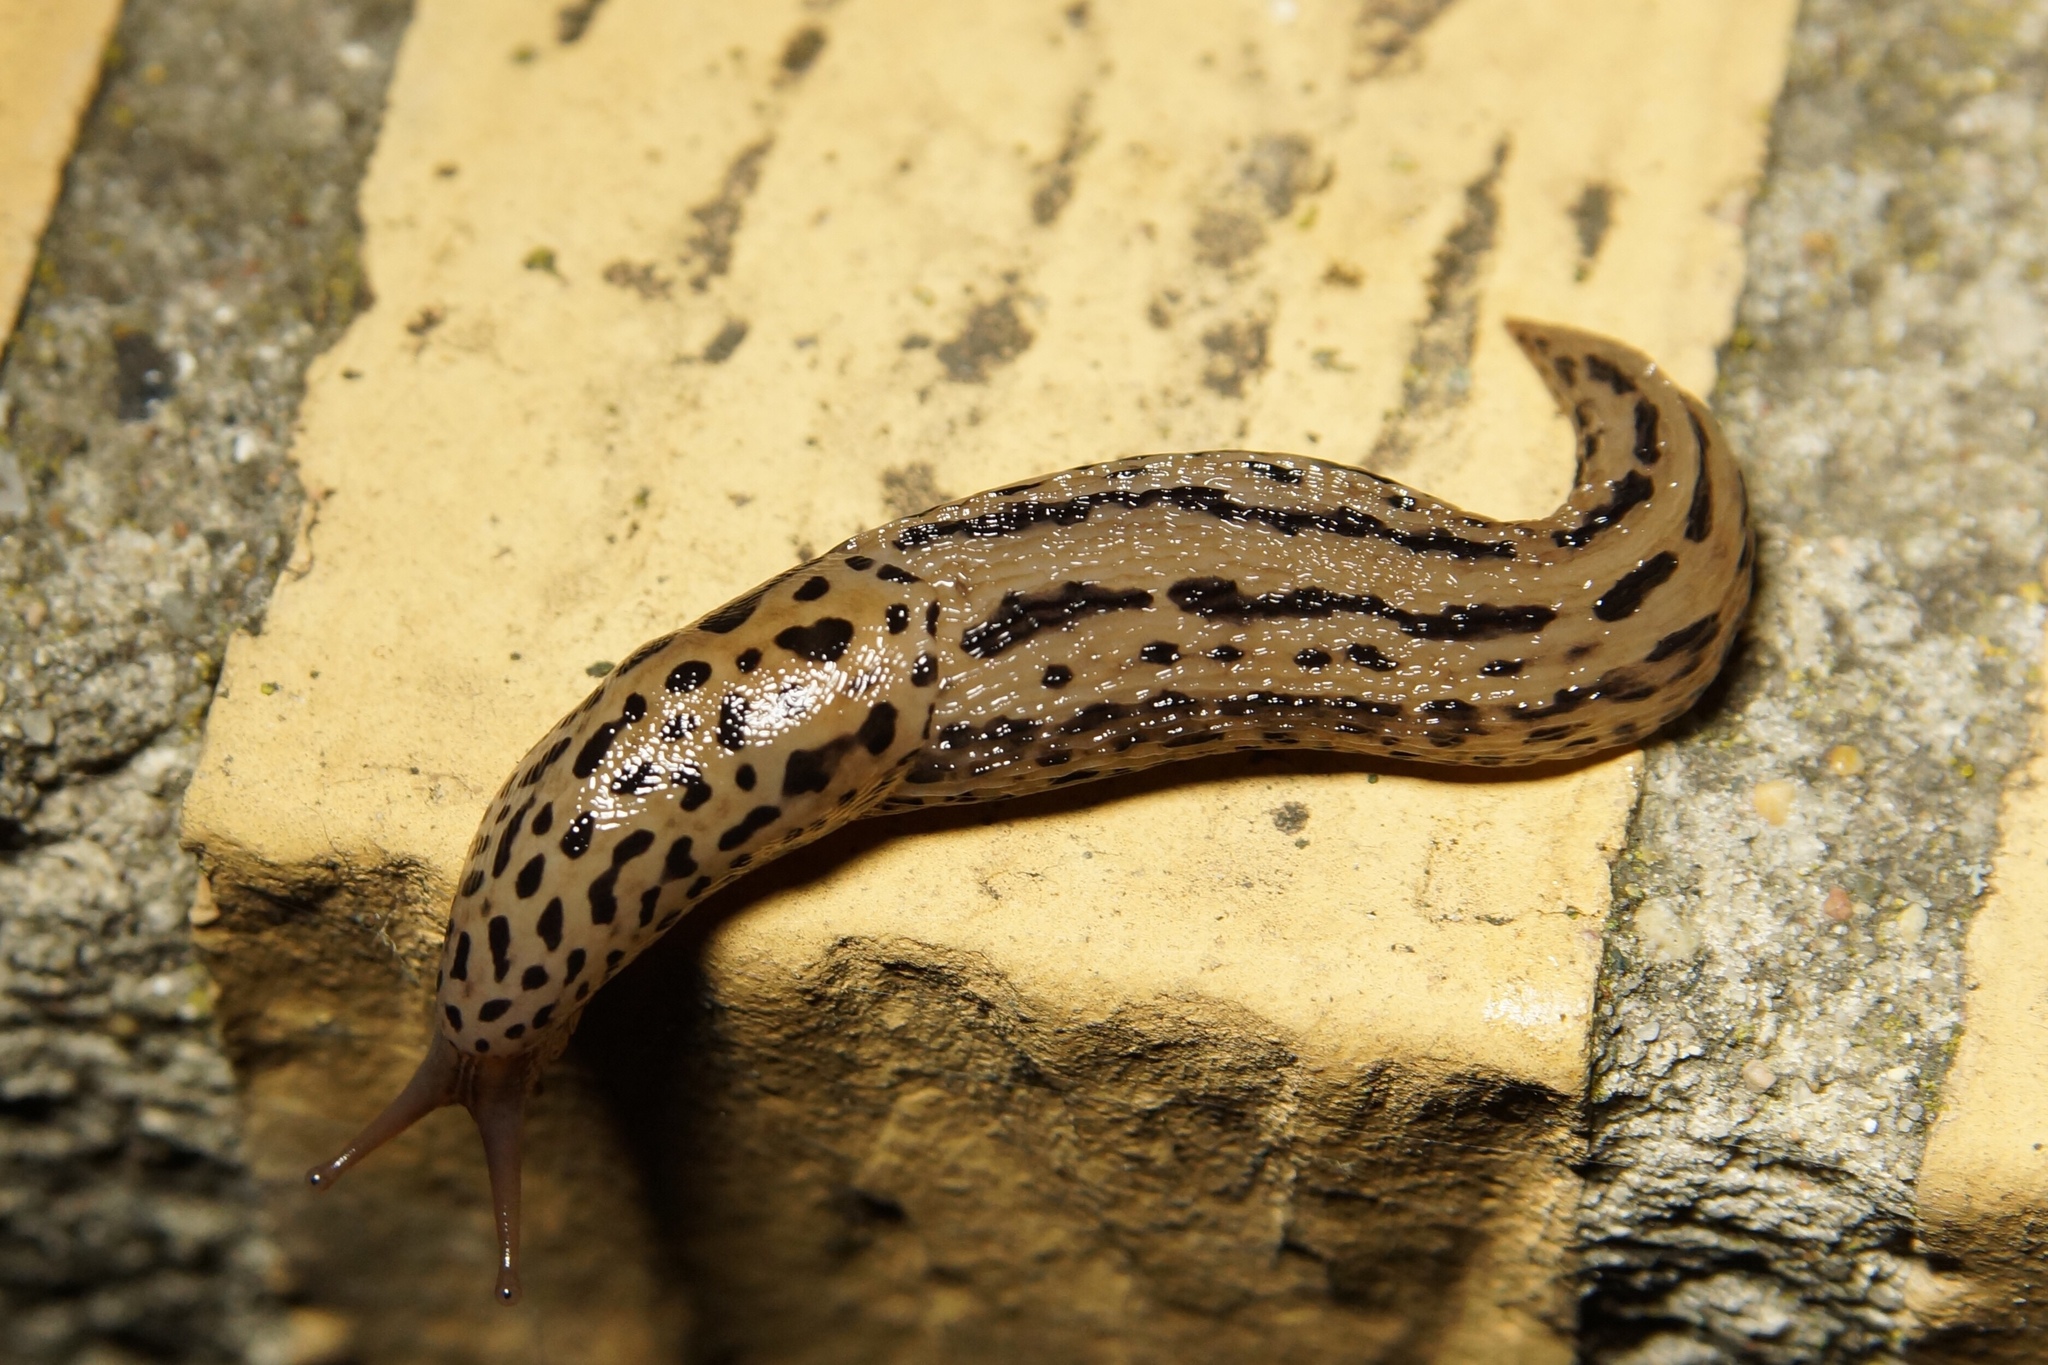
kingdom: Animalia
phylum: Mollusca
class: Gastropoda
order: Stylommatophora
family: Limacidae
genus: Limax
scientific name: Limax maximus
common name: Great grey slug
